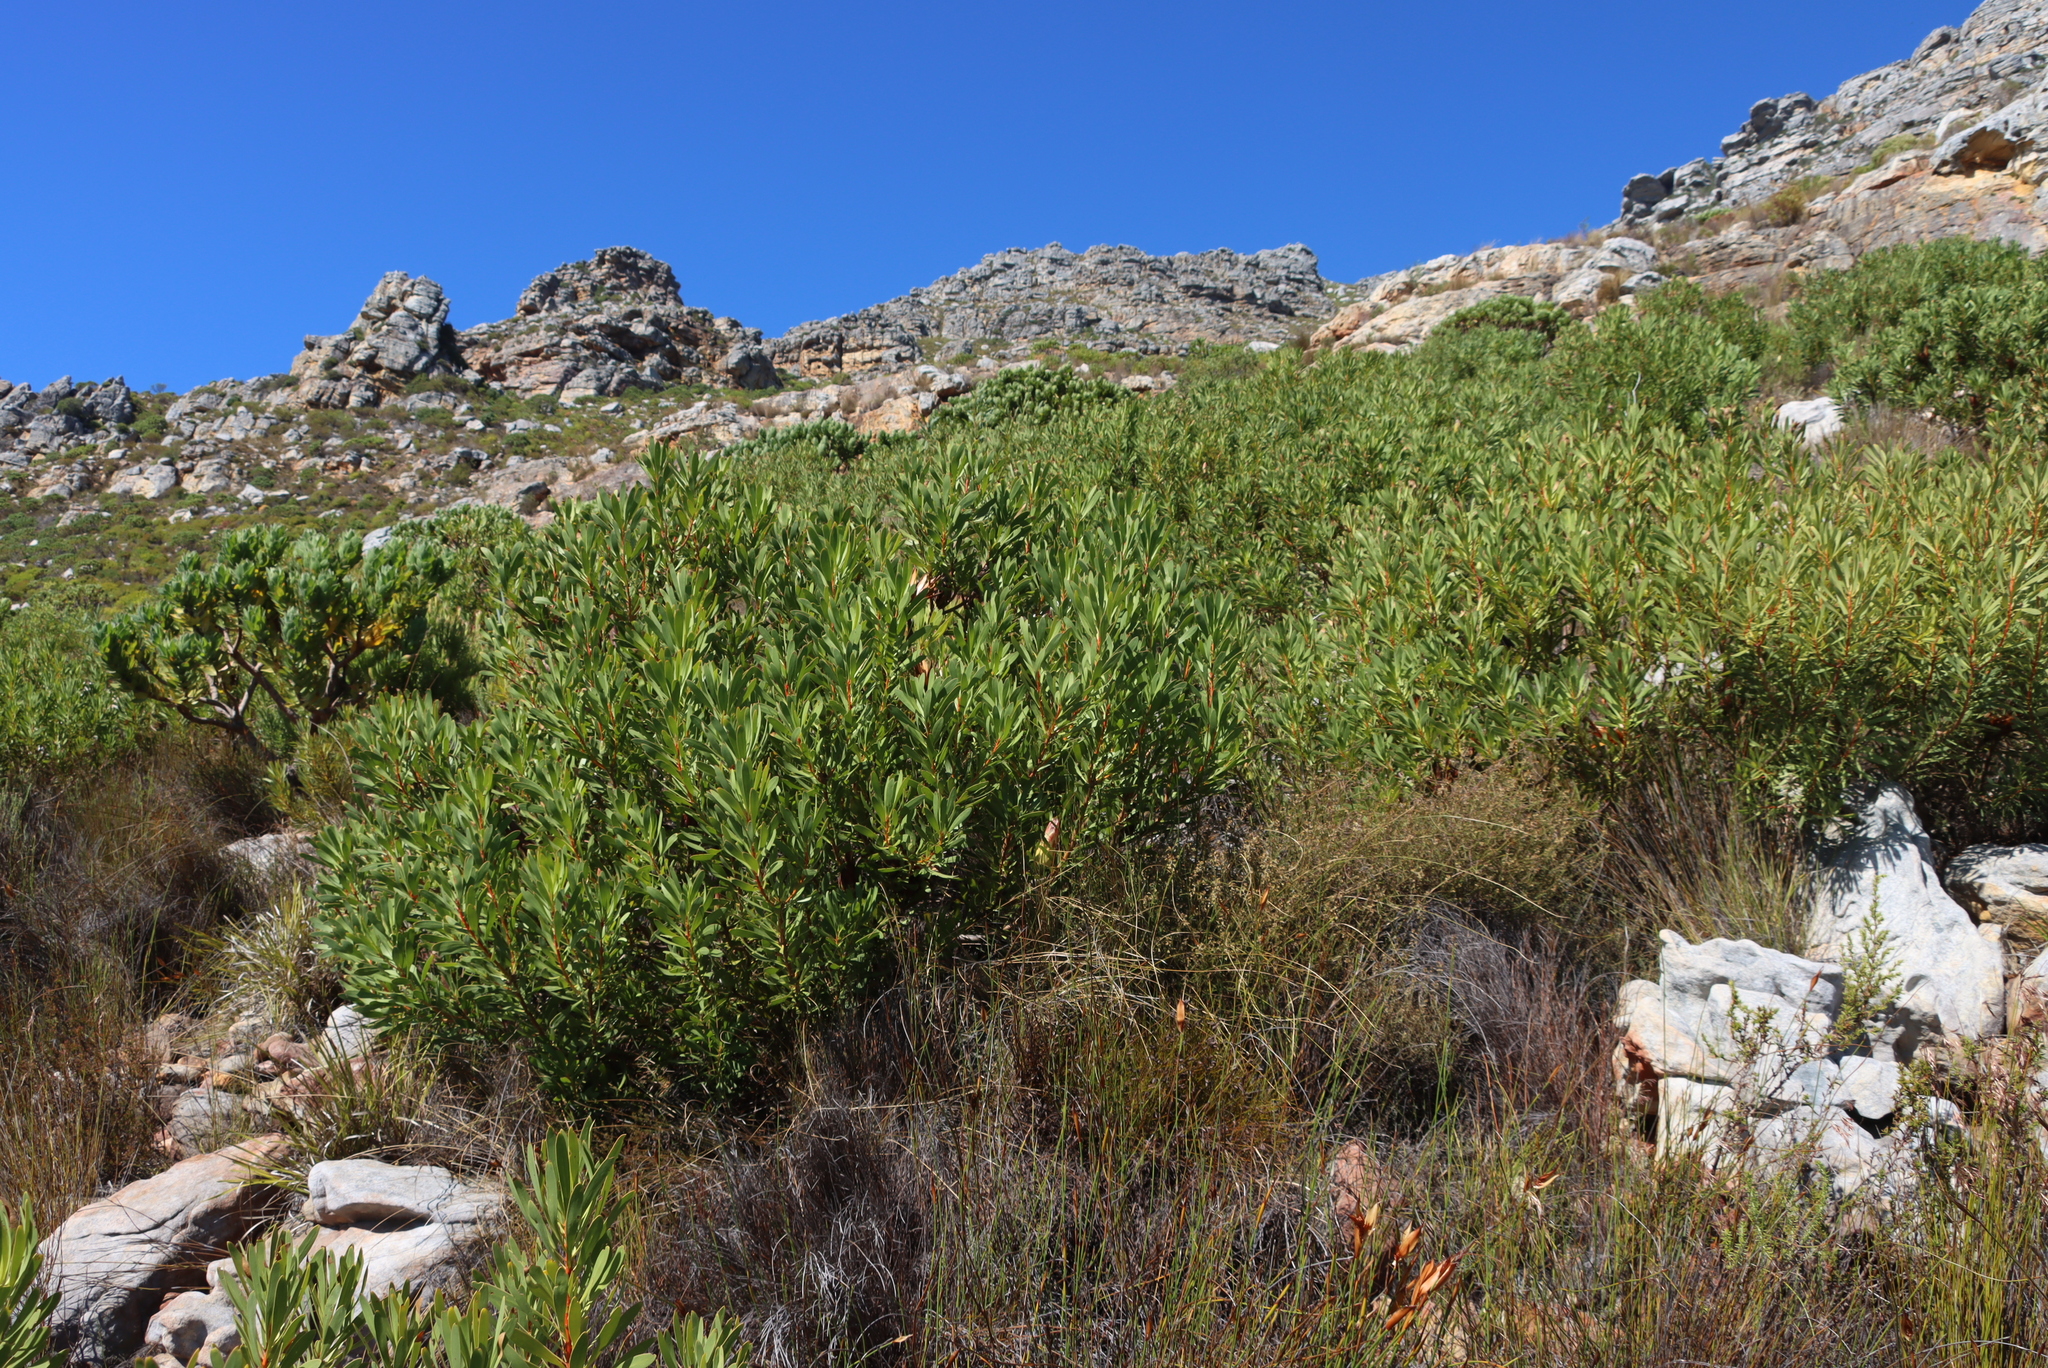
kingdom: Plantae
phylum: Tracheophyta
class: Magnoliopsida
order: Proteales
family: Proteaceae
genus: Protea
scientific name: Protea repens
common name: Sugarbush
